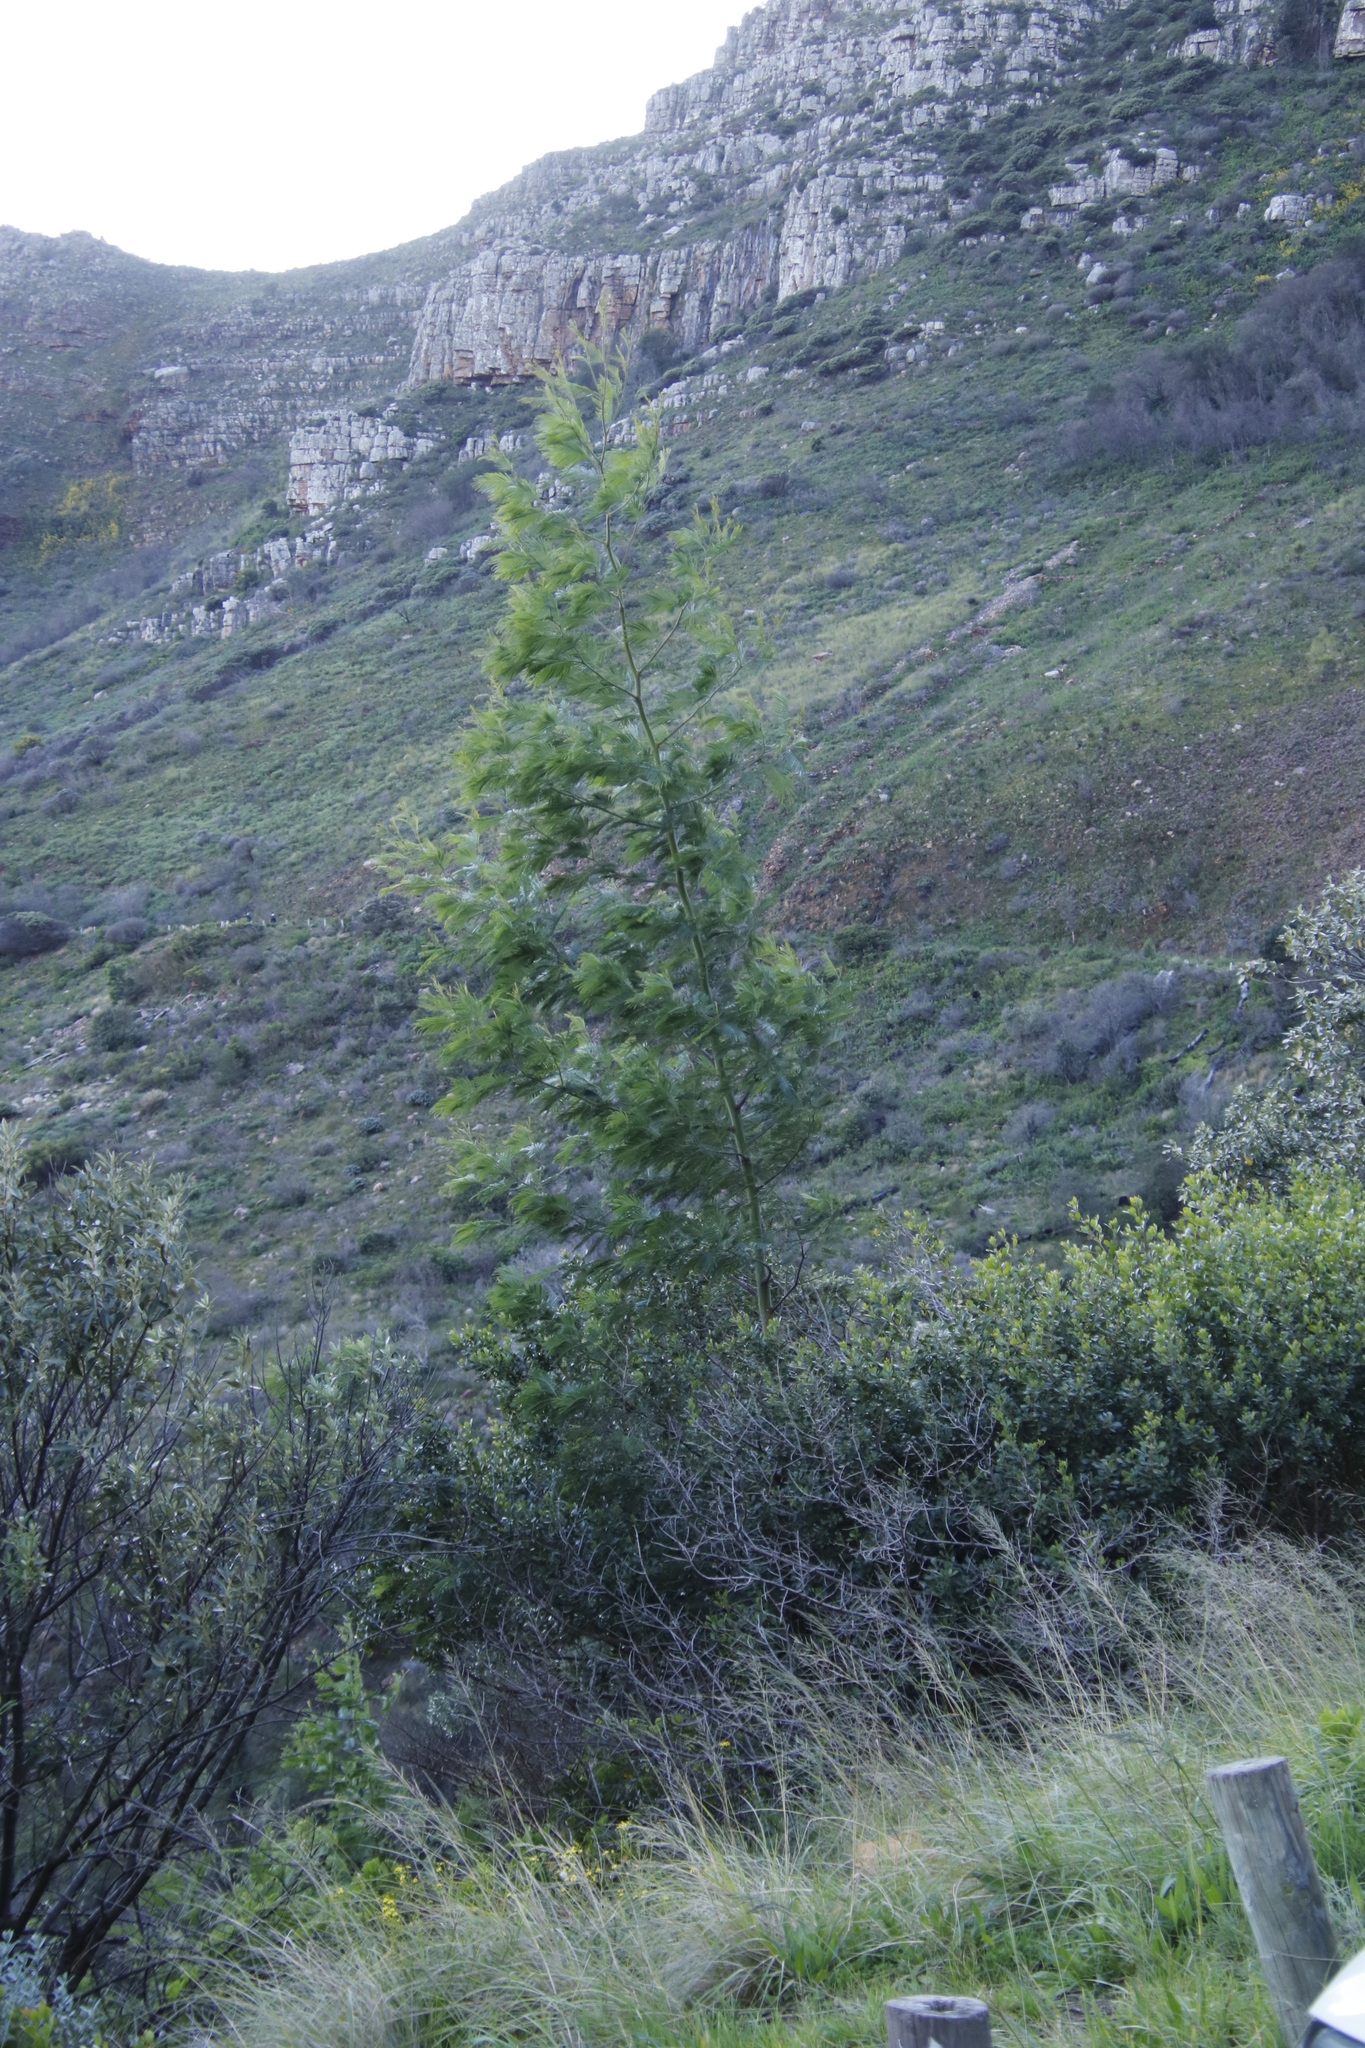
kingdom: Plantae
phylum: Tracheophyta
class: Magnoliopsida
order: Fabales
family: Fabaceae
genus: Acacia
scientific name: Acacia mearnsii
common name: Black wattle
